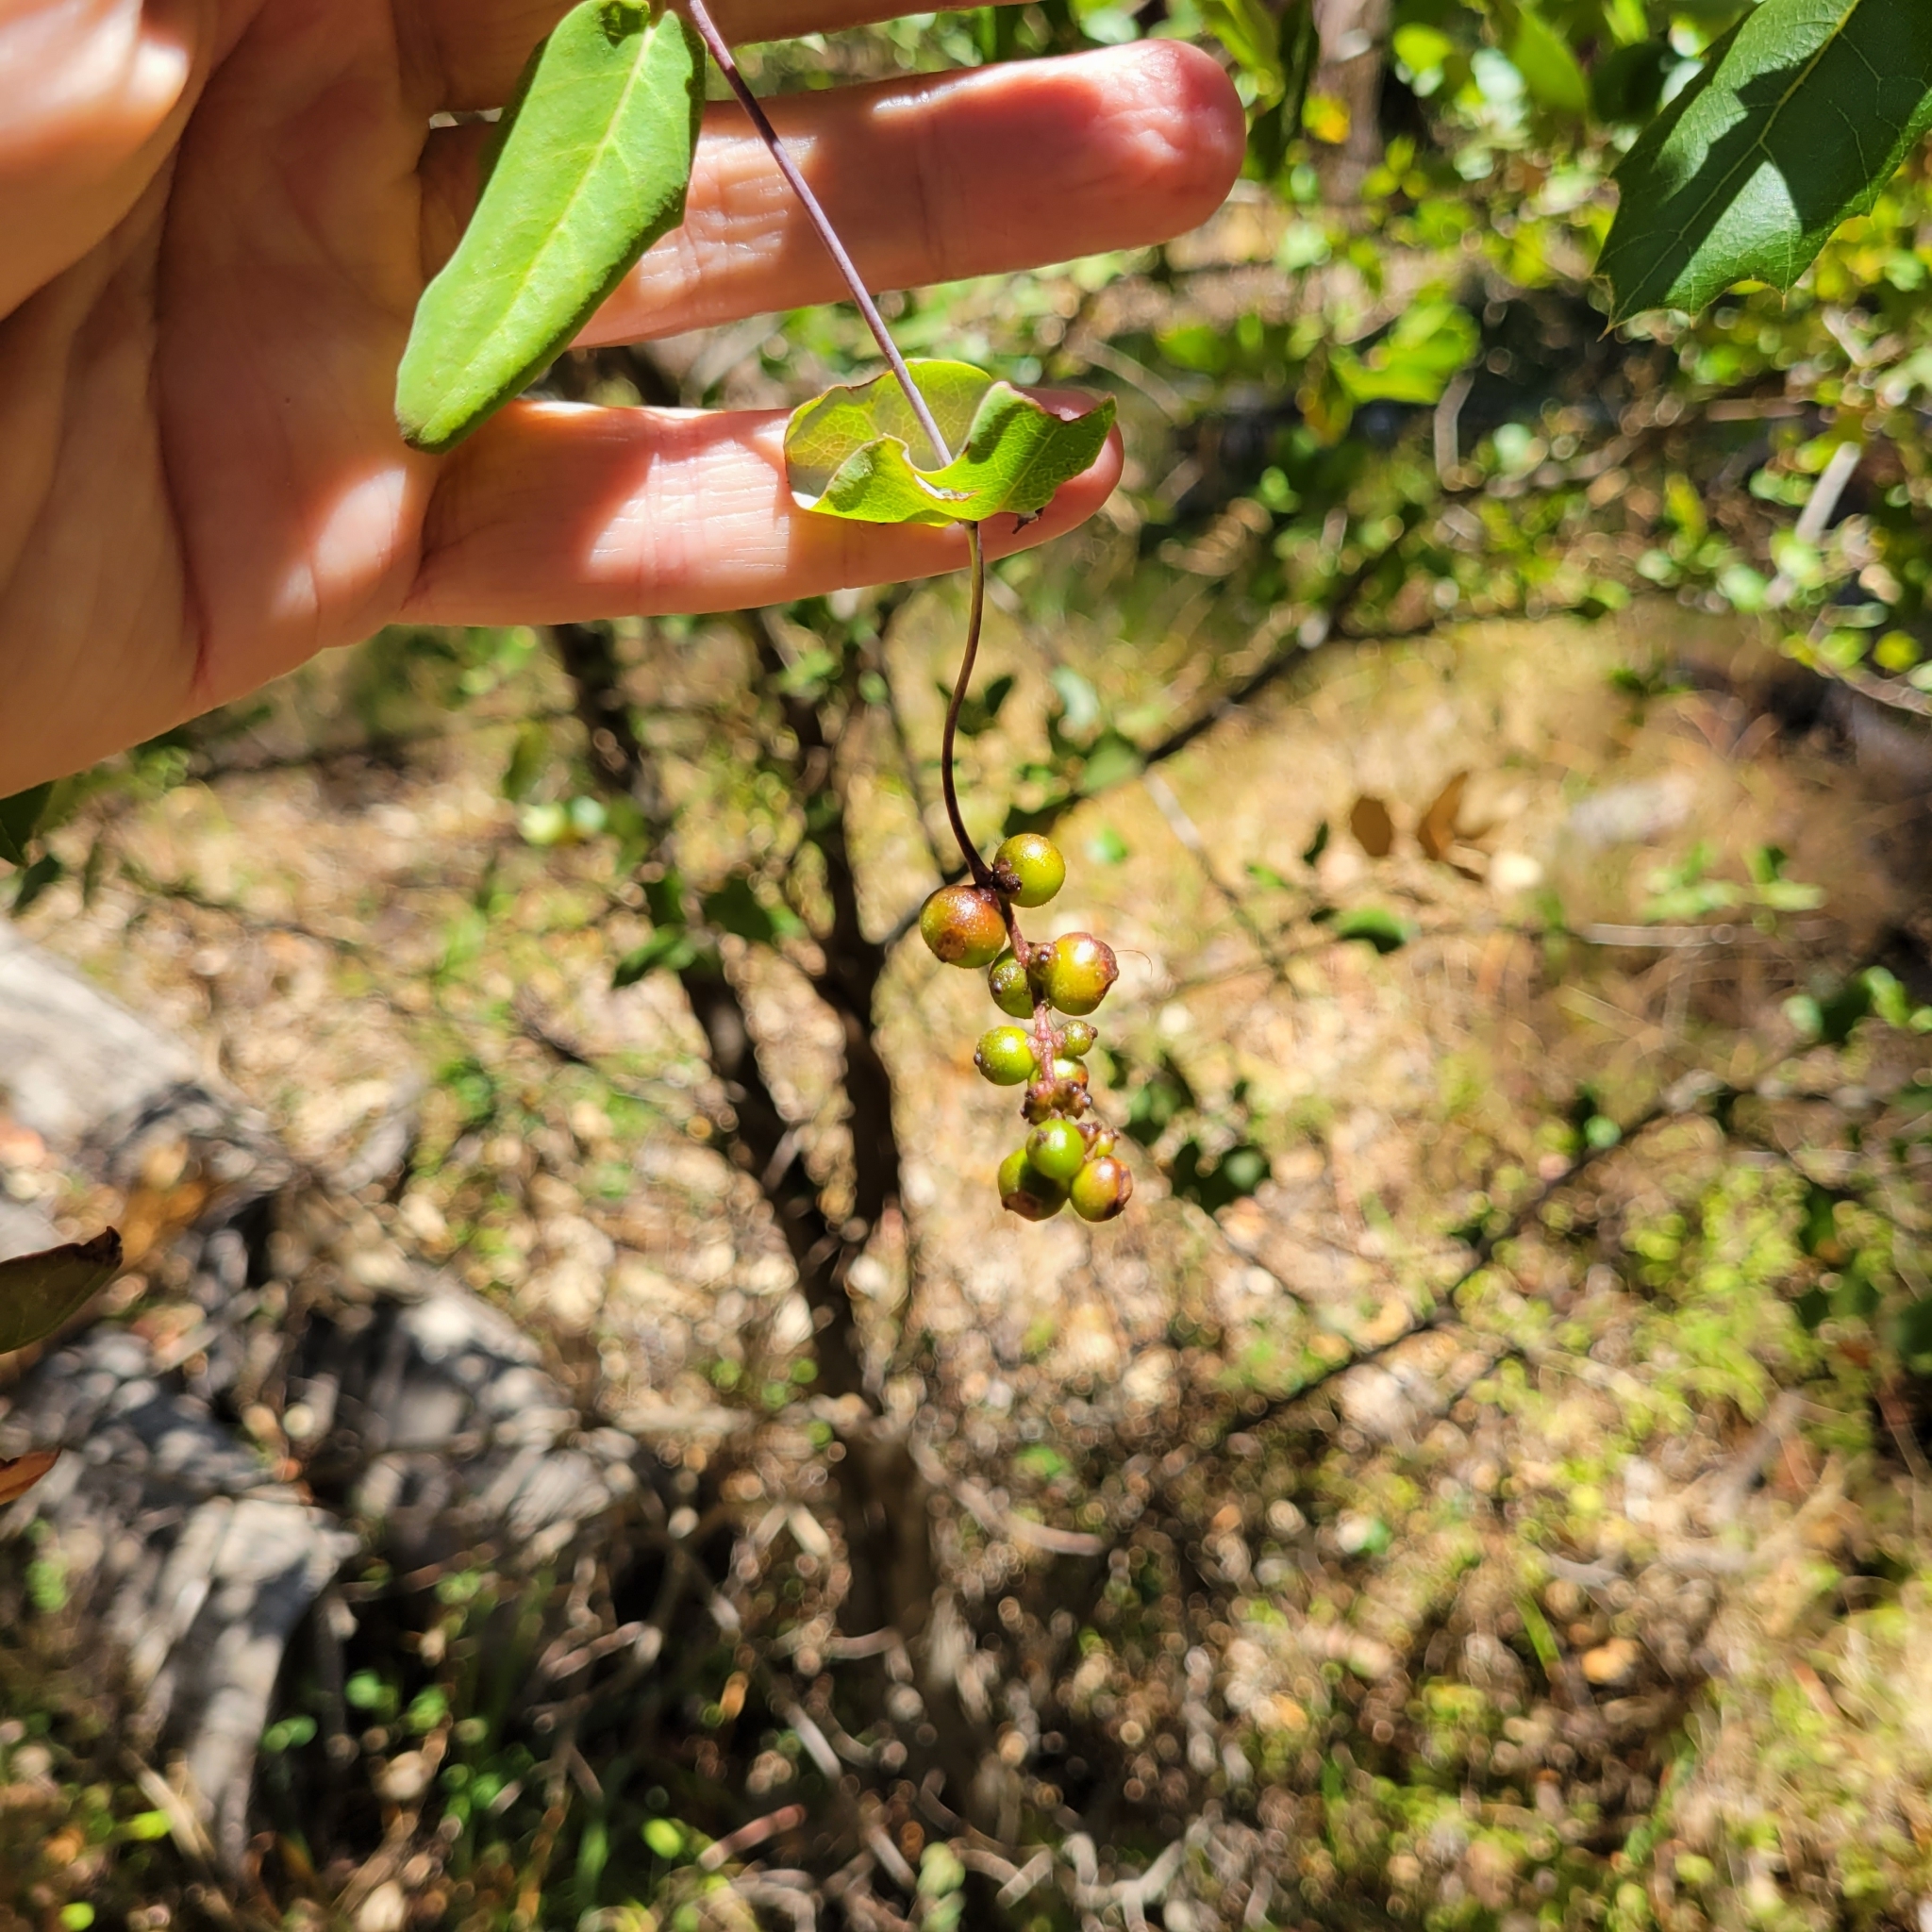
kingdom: Plantae
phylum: Tracheophyta
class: Magnoliopsida
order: Dipsacales
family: Caprifoliaceae
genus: Lonicera
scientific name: Lonicera hispidula
